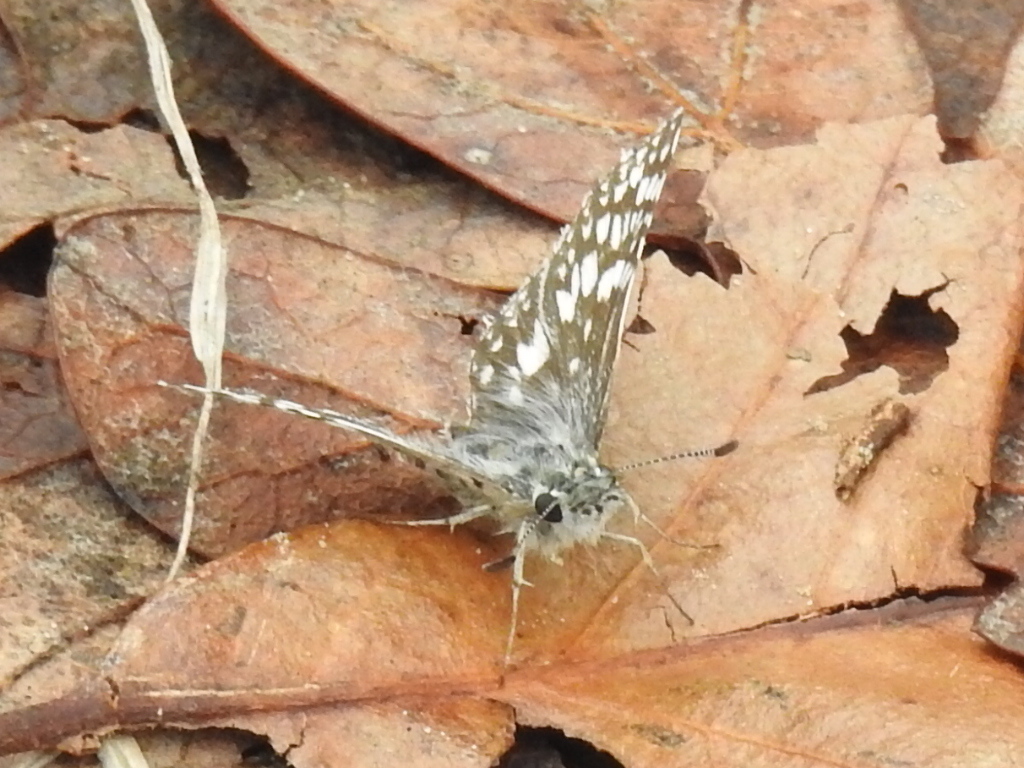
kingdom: Animalia
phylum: Arthropoda
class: Insecta
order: Lepidoptera
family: Hesperiidae
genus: Burnsius
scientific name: Burnsius
